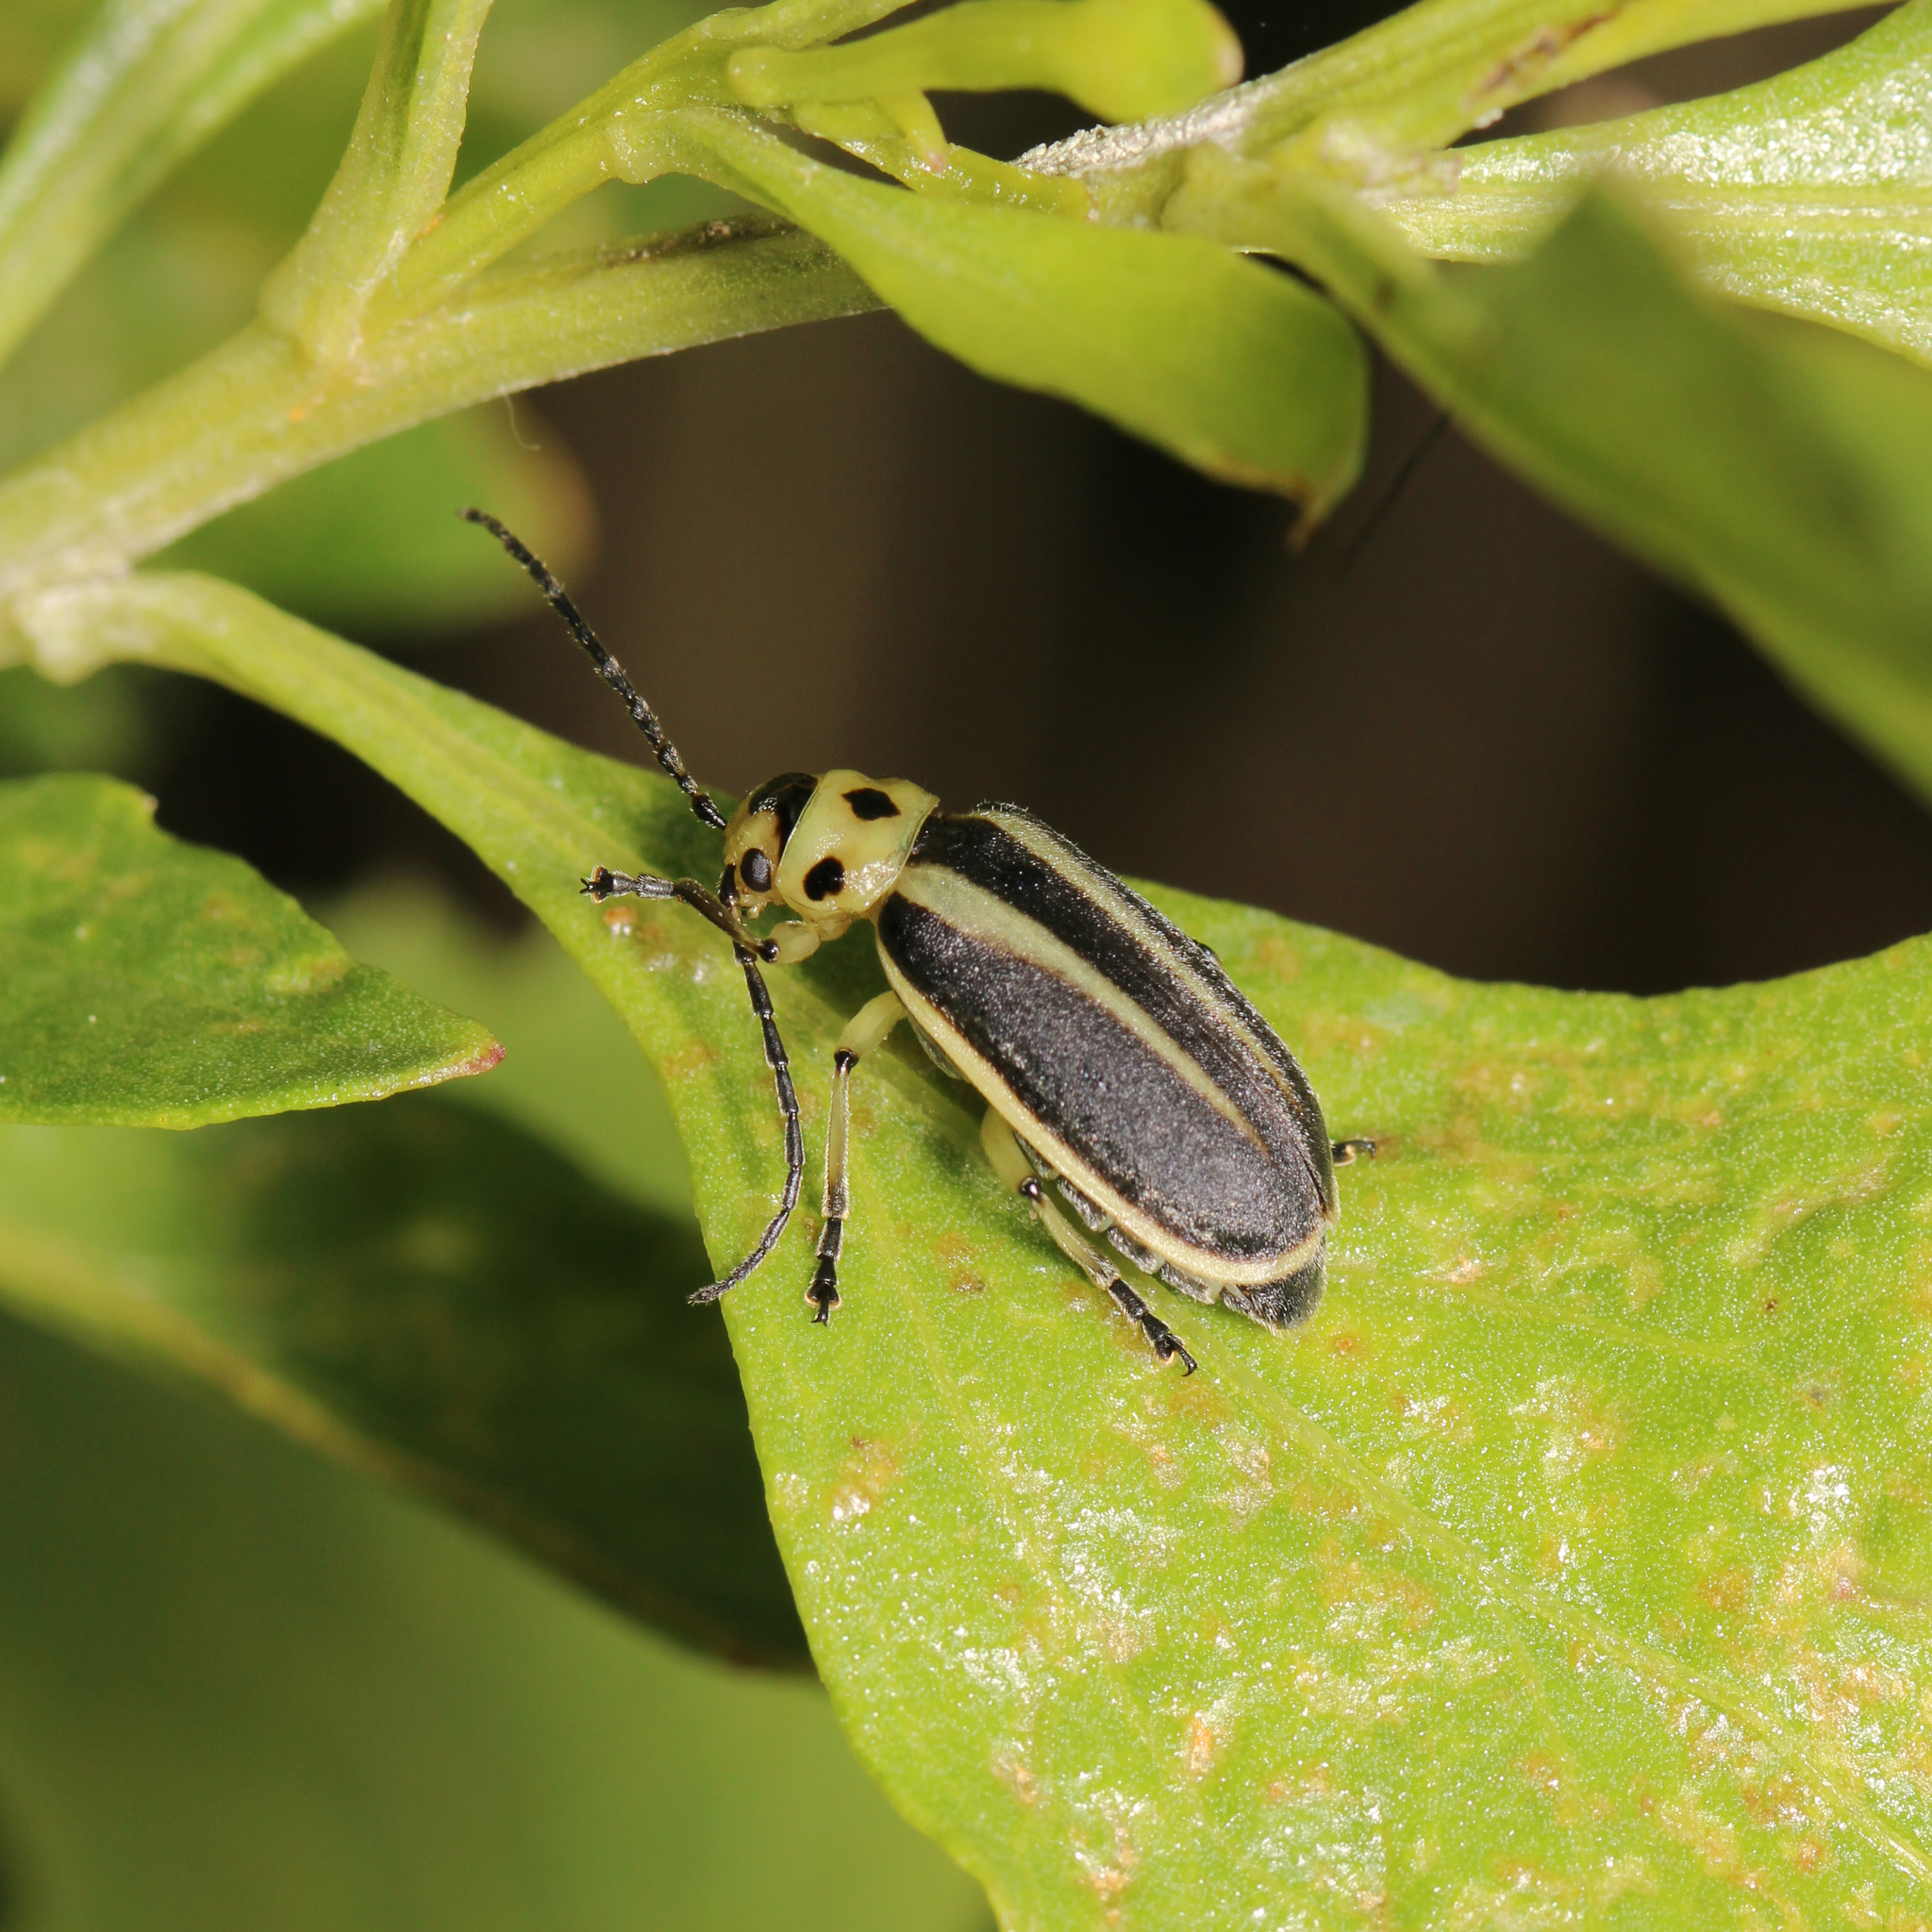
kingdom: Animalia
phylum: Arthropoda
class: Insecta
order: Coleoptera
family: Chrysomelidae
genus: Trirhabda
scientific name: Trirhabda bacharidis
